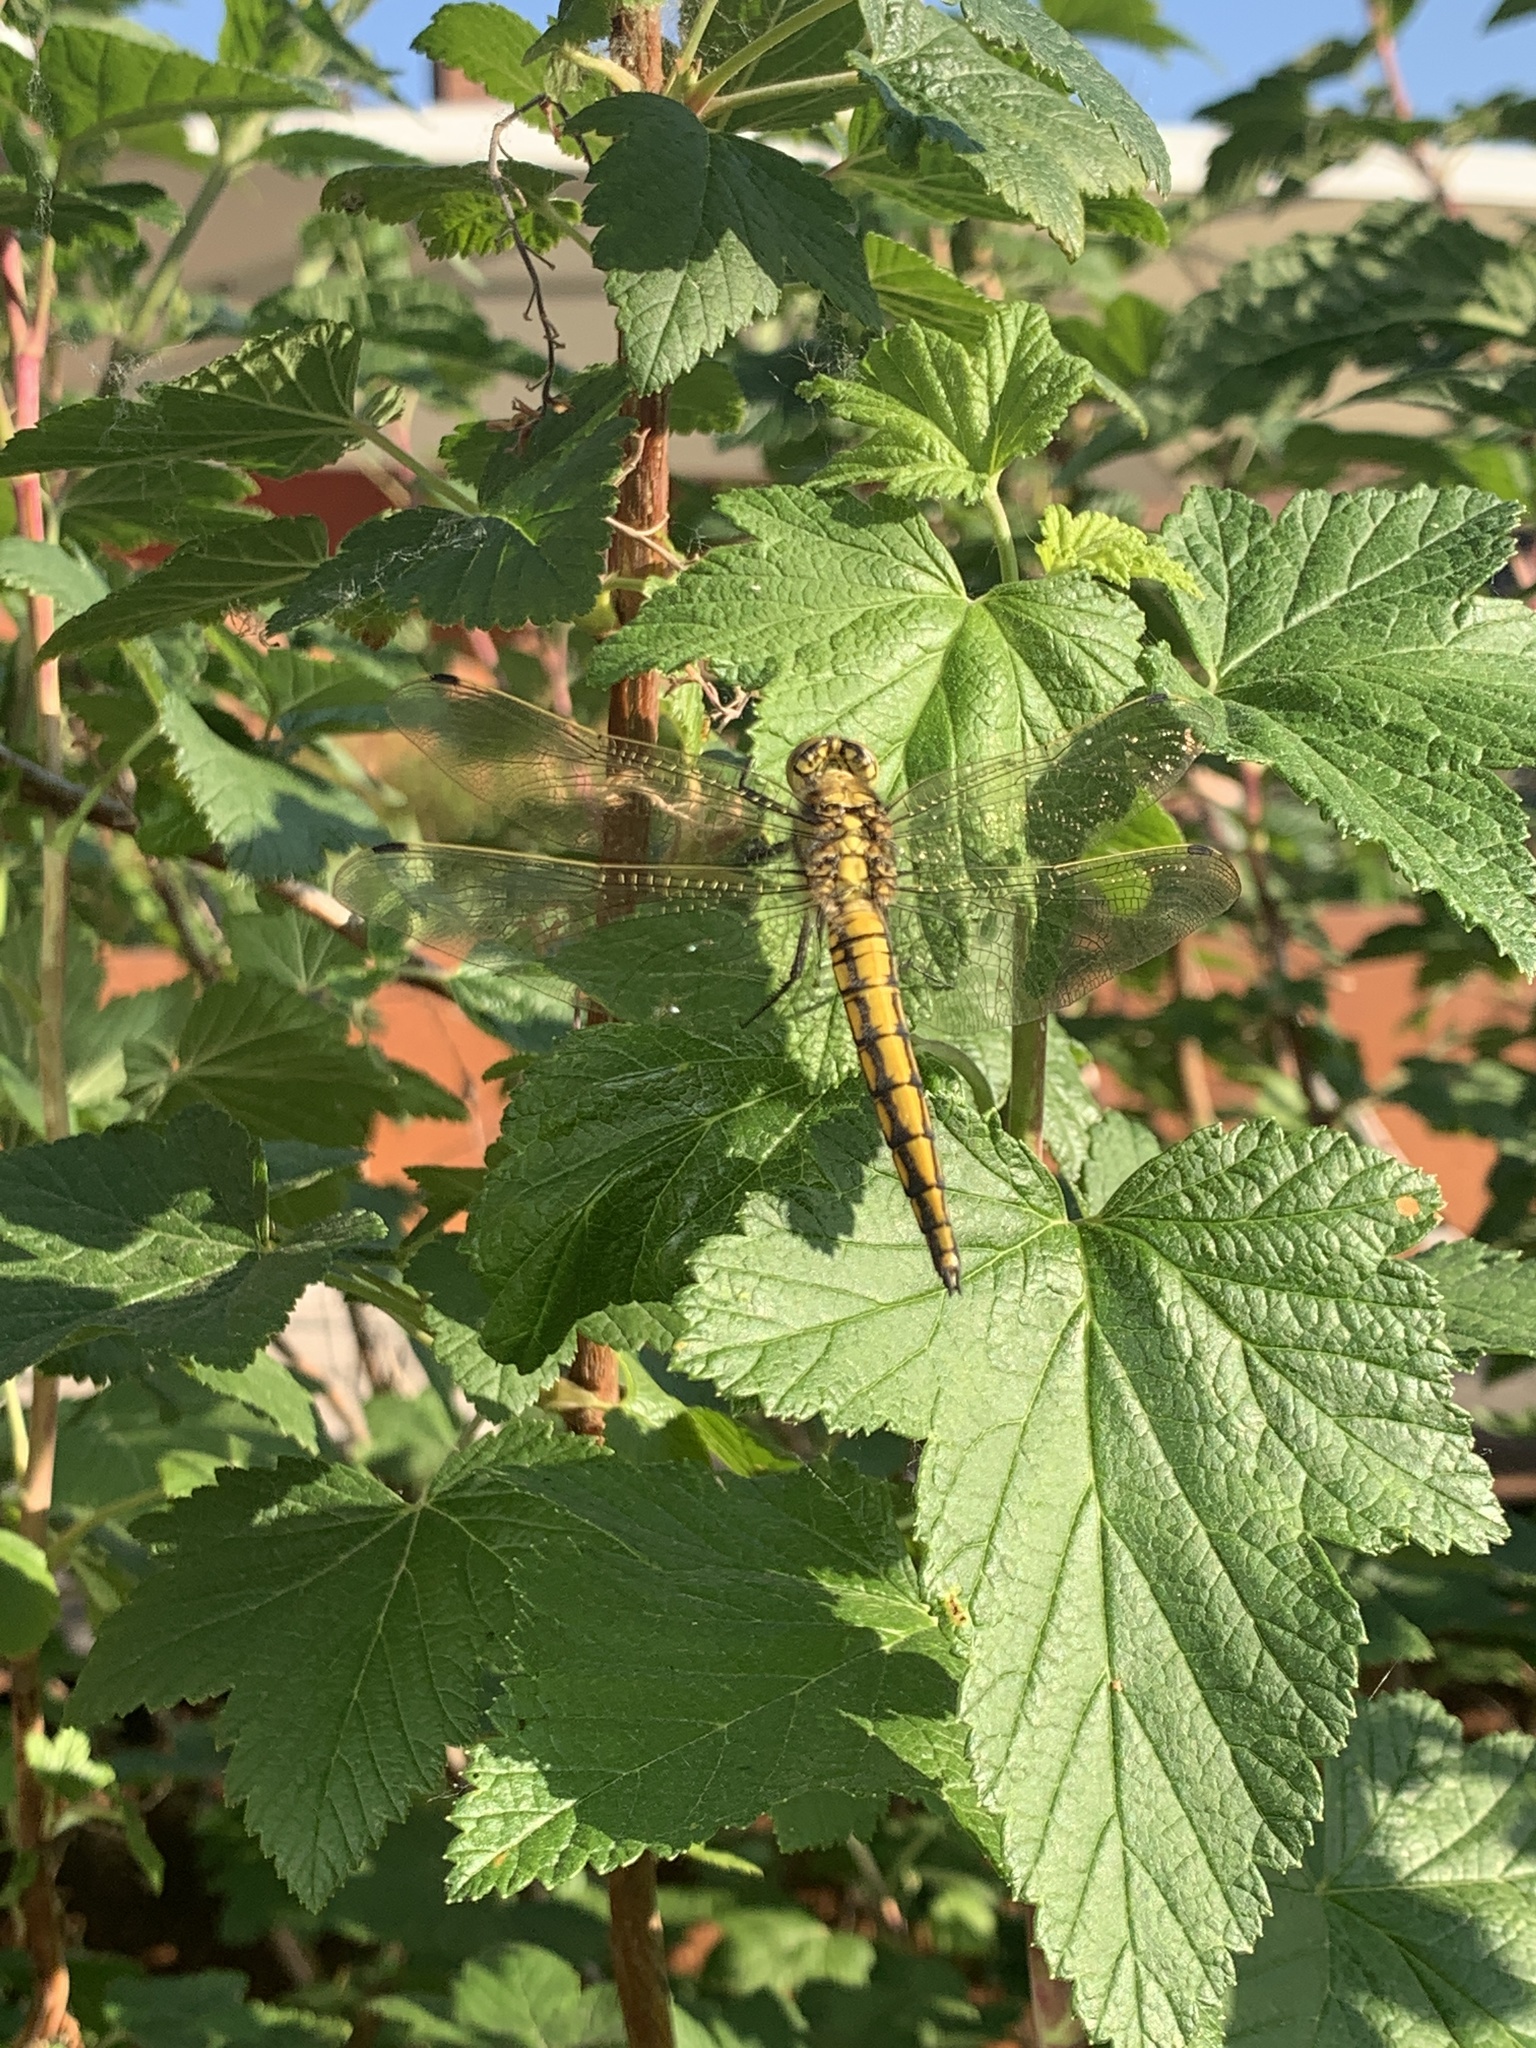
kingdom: Animalia
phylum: Arthropoda
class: Insecta
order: Odonata
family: Libellulidae
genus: Orthetrum
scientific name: Orthetrum cancellatum
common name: Black-tailed skimmer
